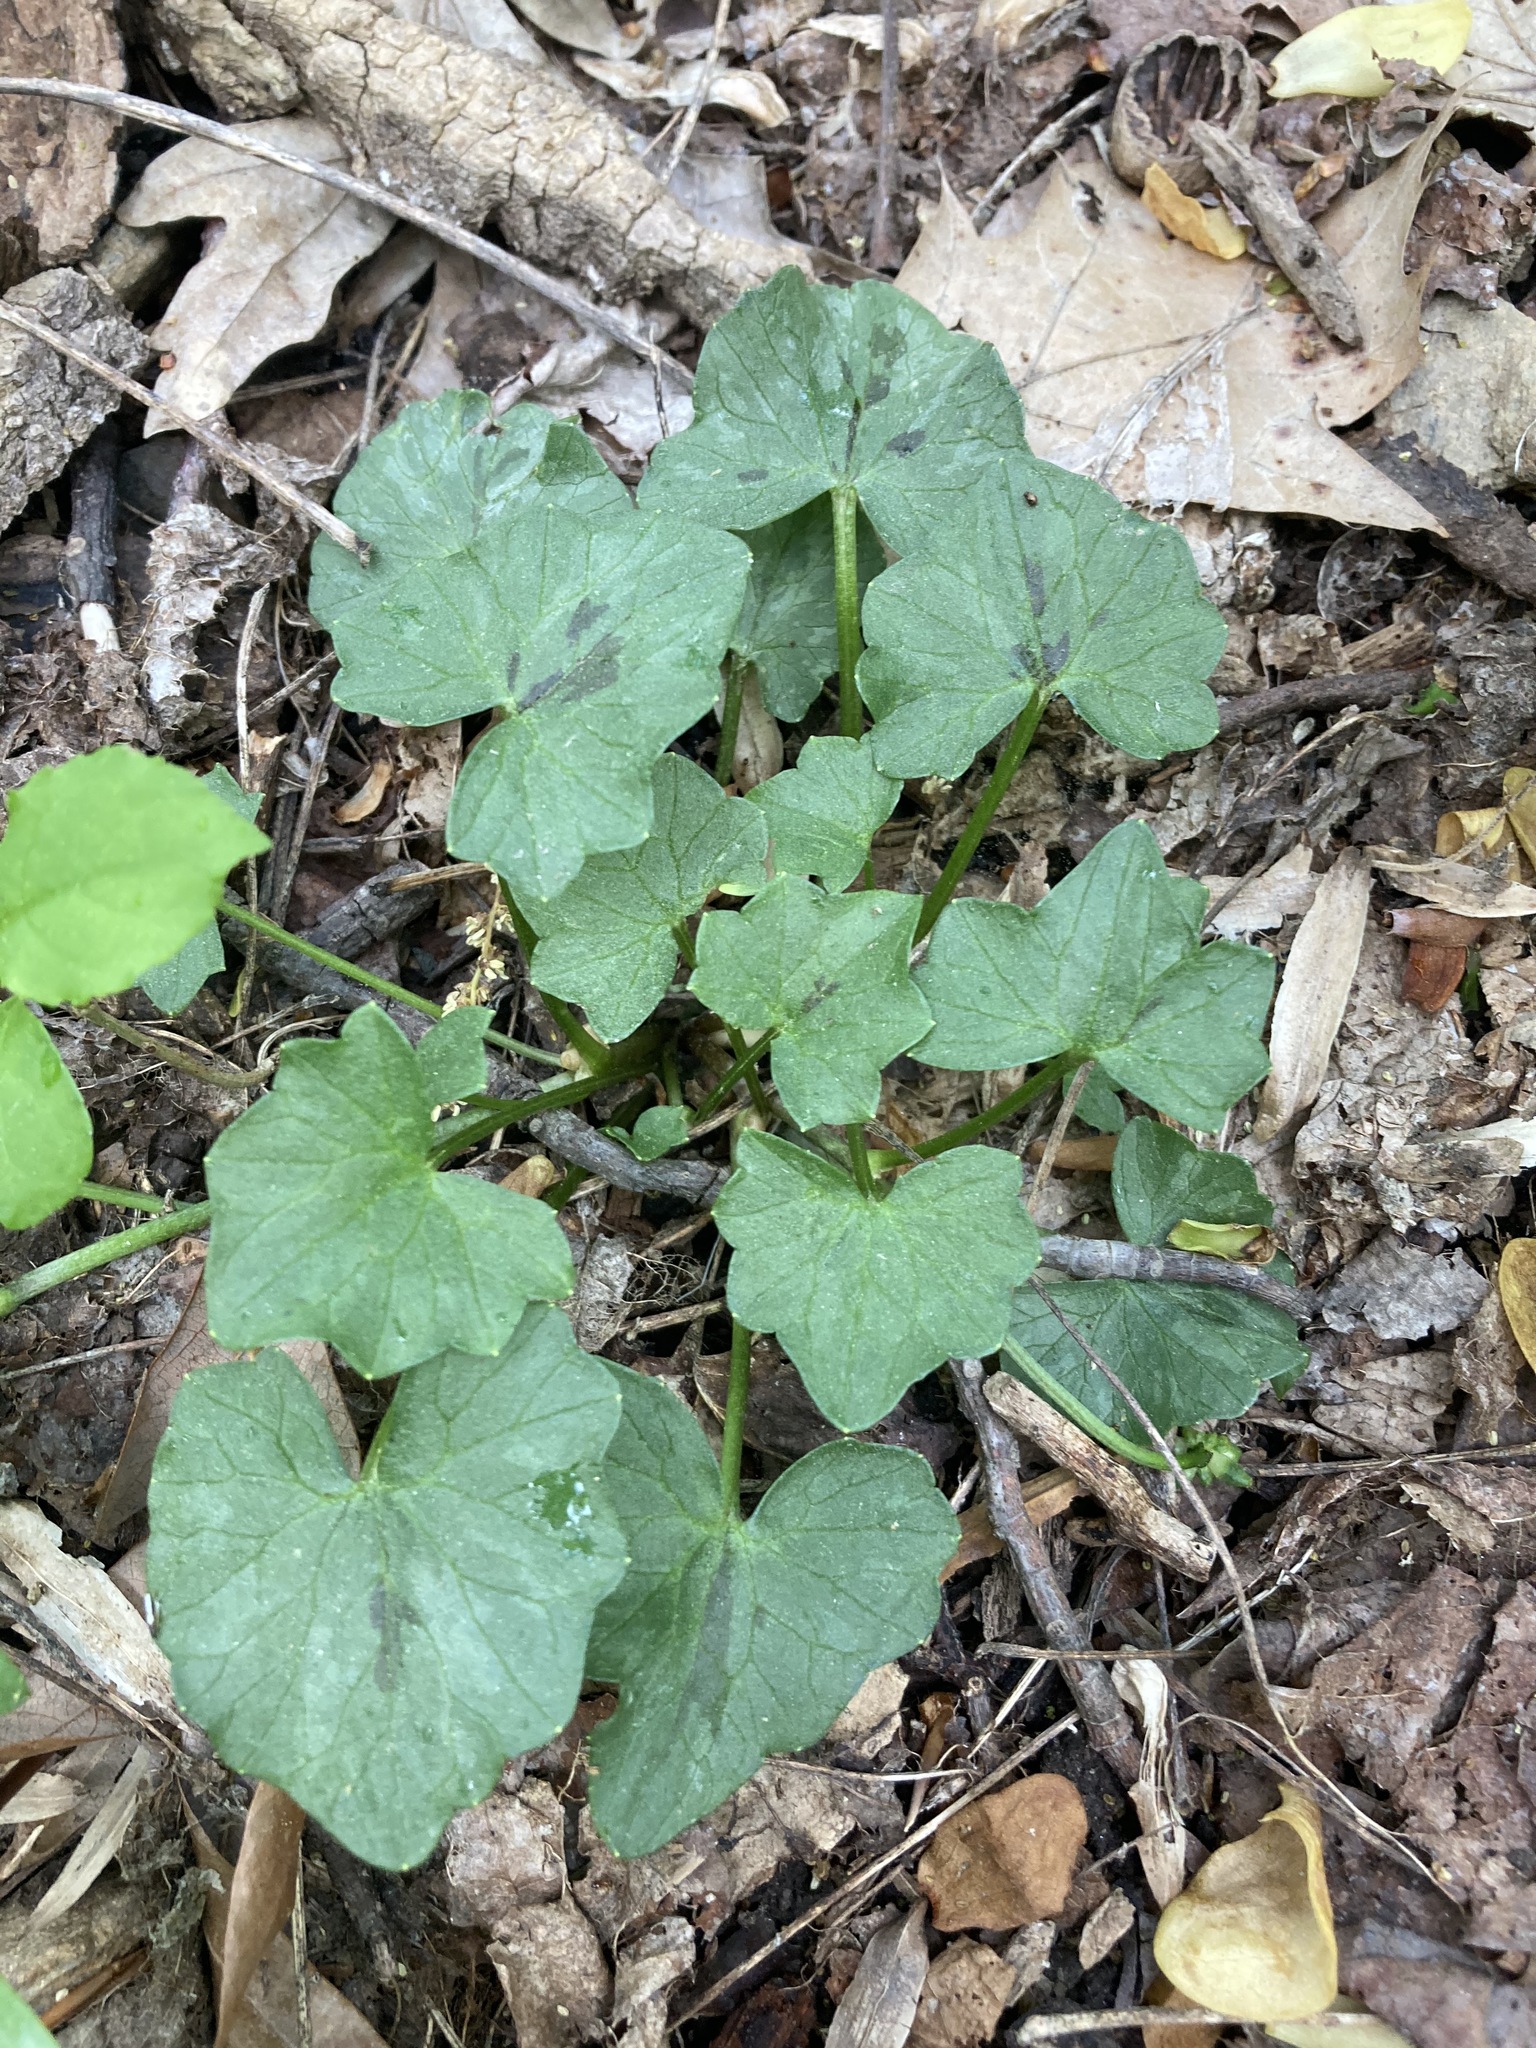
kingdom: Plantae
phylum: Tracheophyta
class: Magnoliopsida
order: Ranunculales
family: Ranunculaceae
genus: Ficaria
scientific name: Ficaria verna
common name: Lesser celandine
